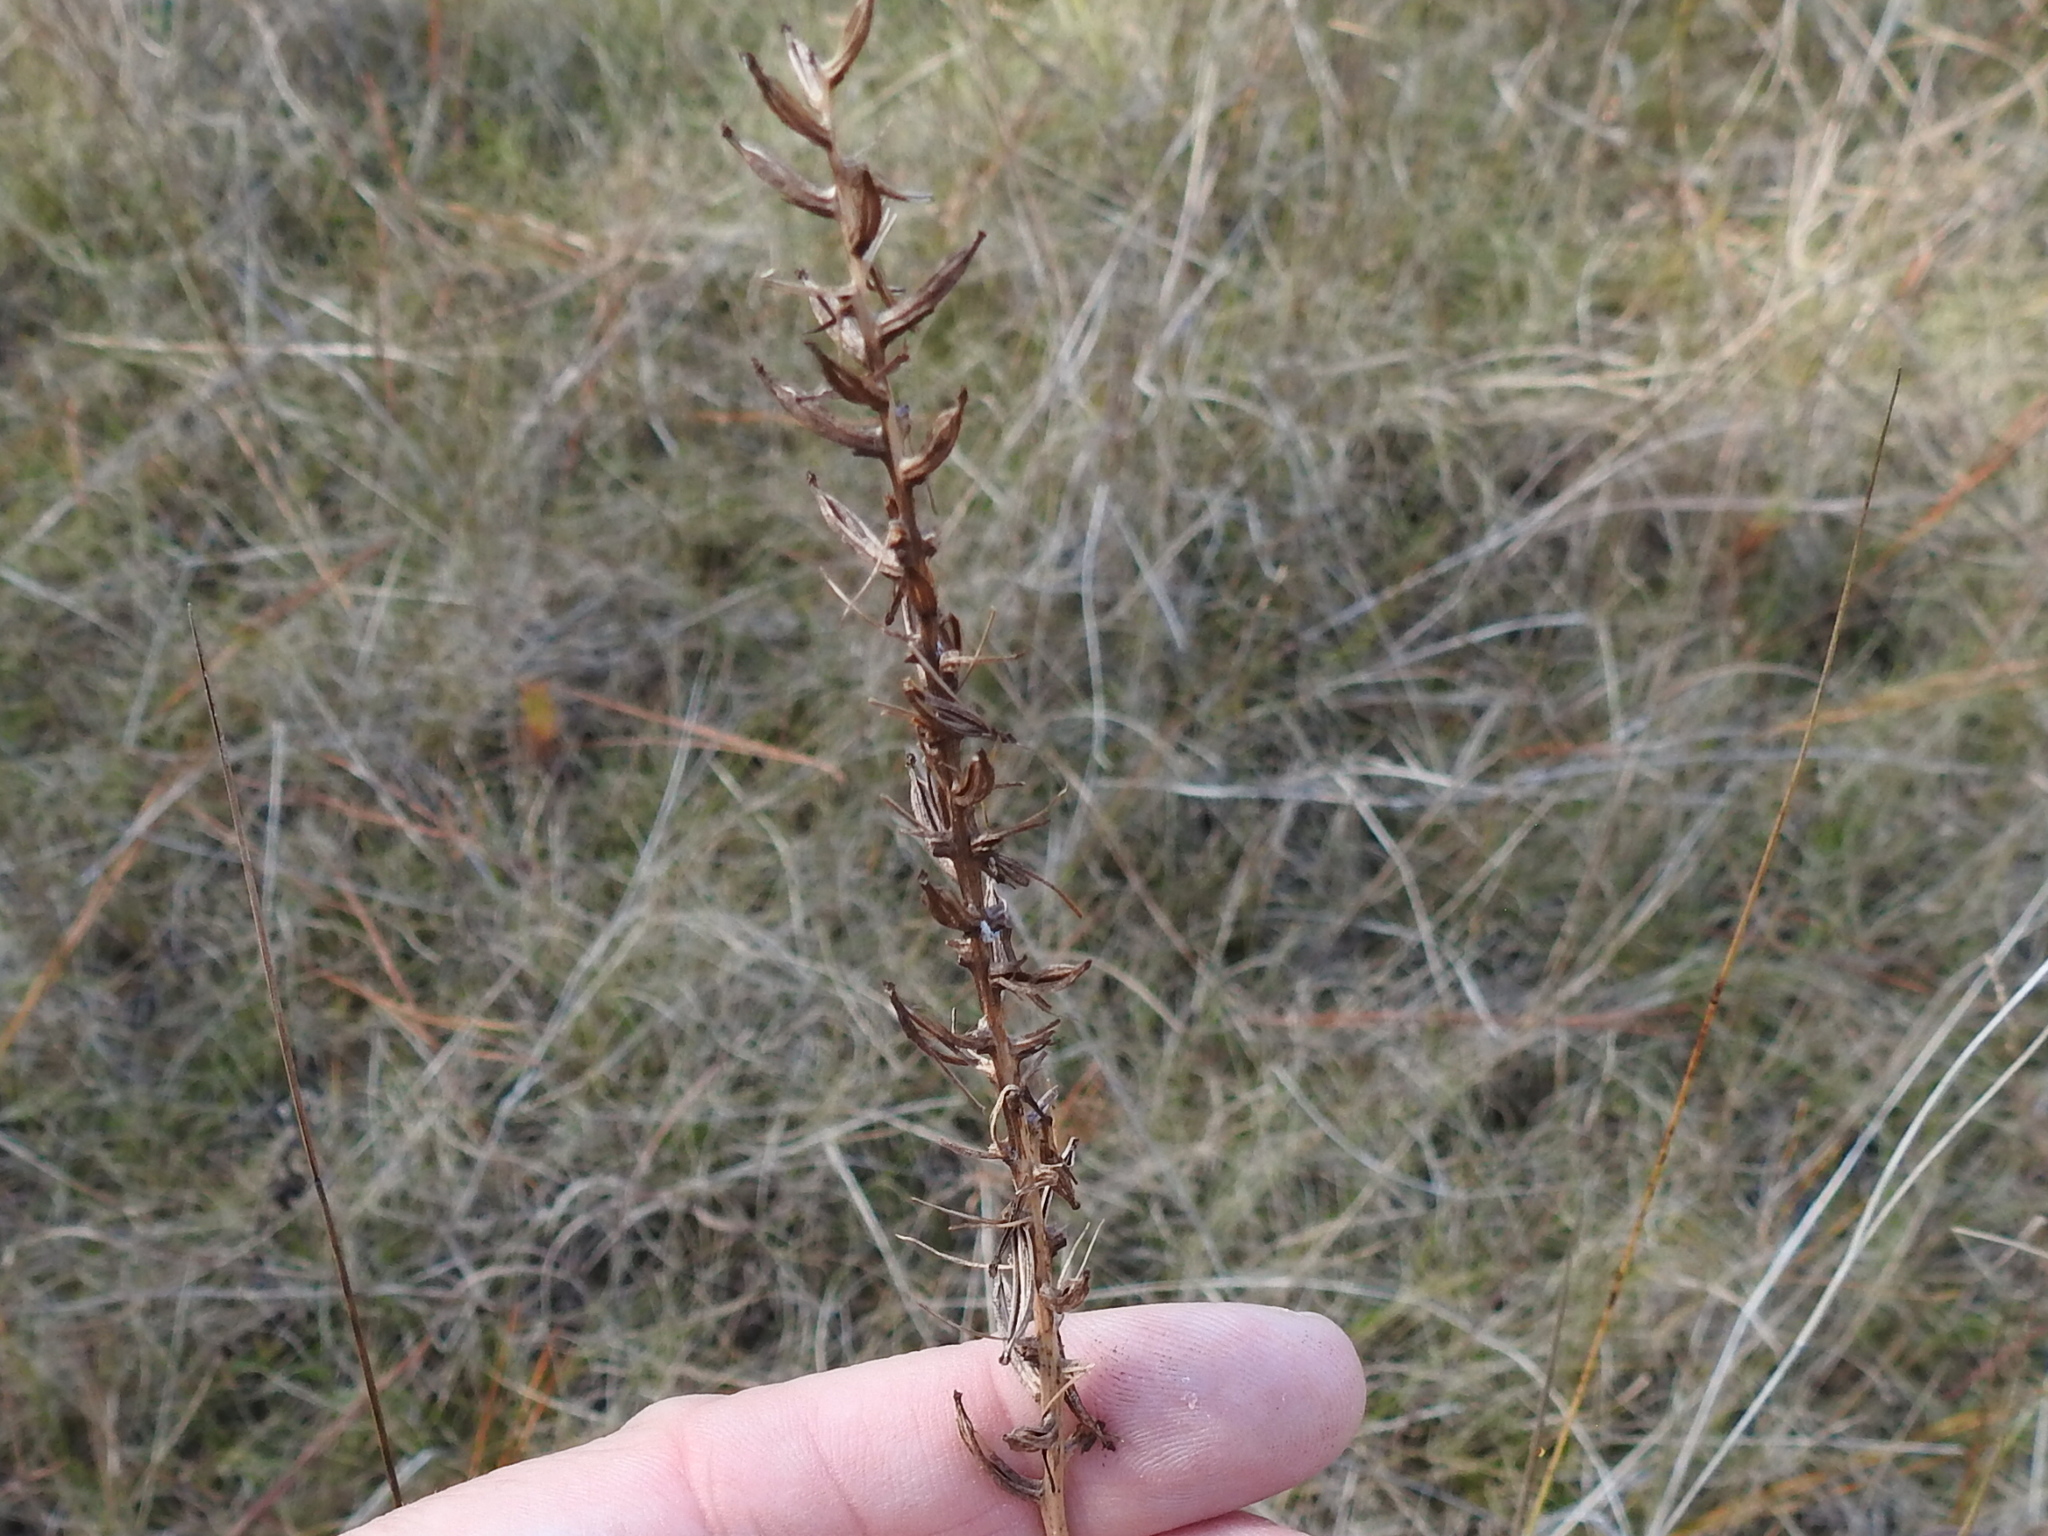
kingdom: Plantae
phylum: Tracheophyta
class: Liliopsida
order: Asparagales
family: Orchidaceae
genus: Platanthera
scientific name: Platanthera nivea
